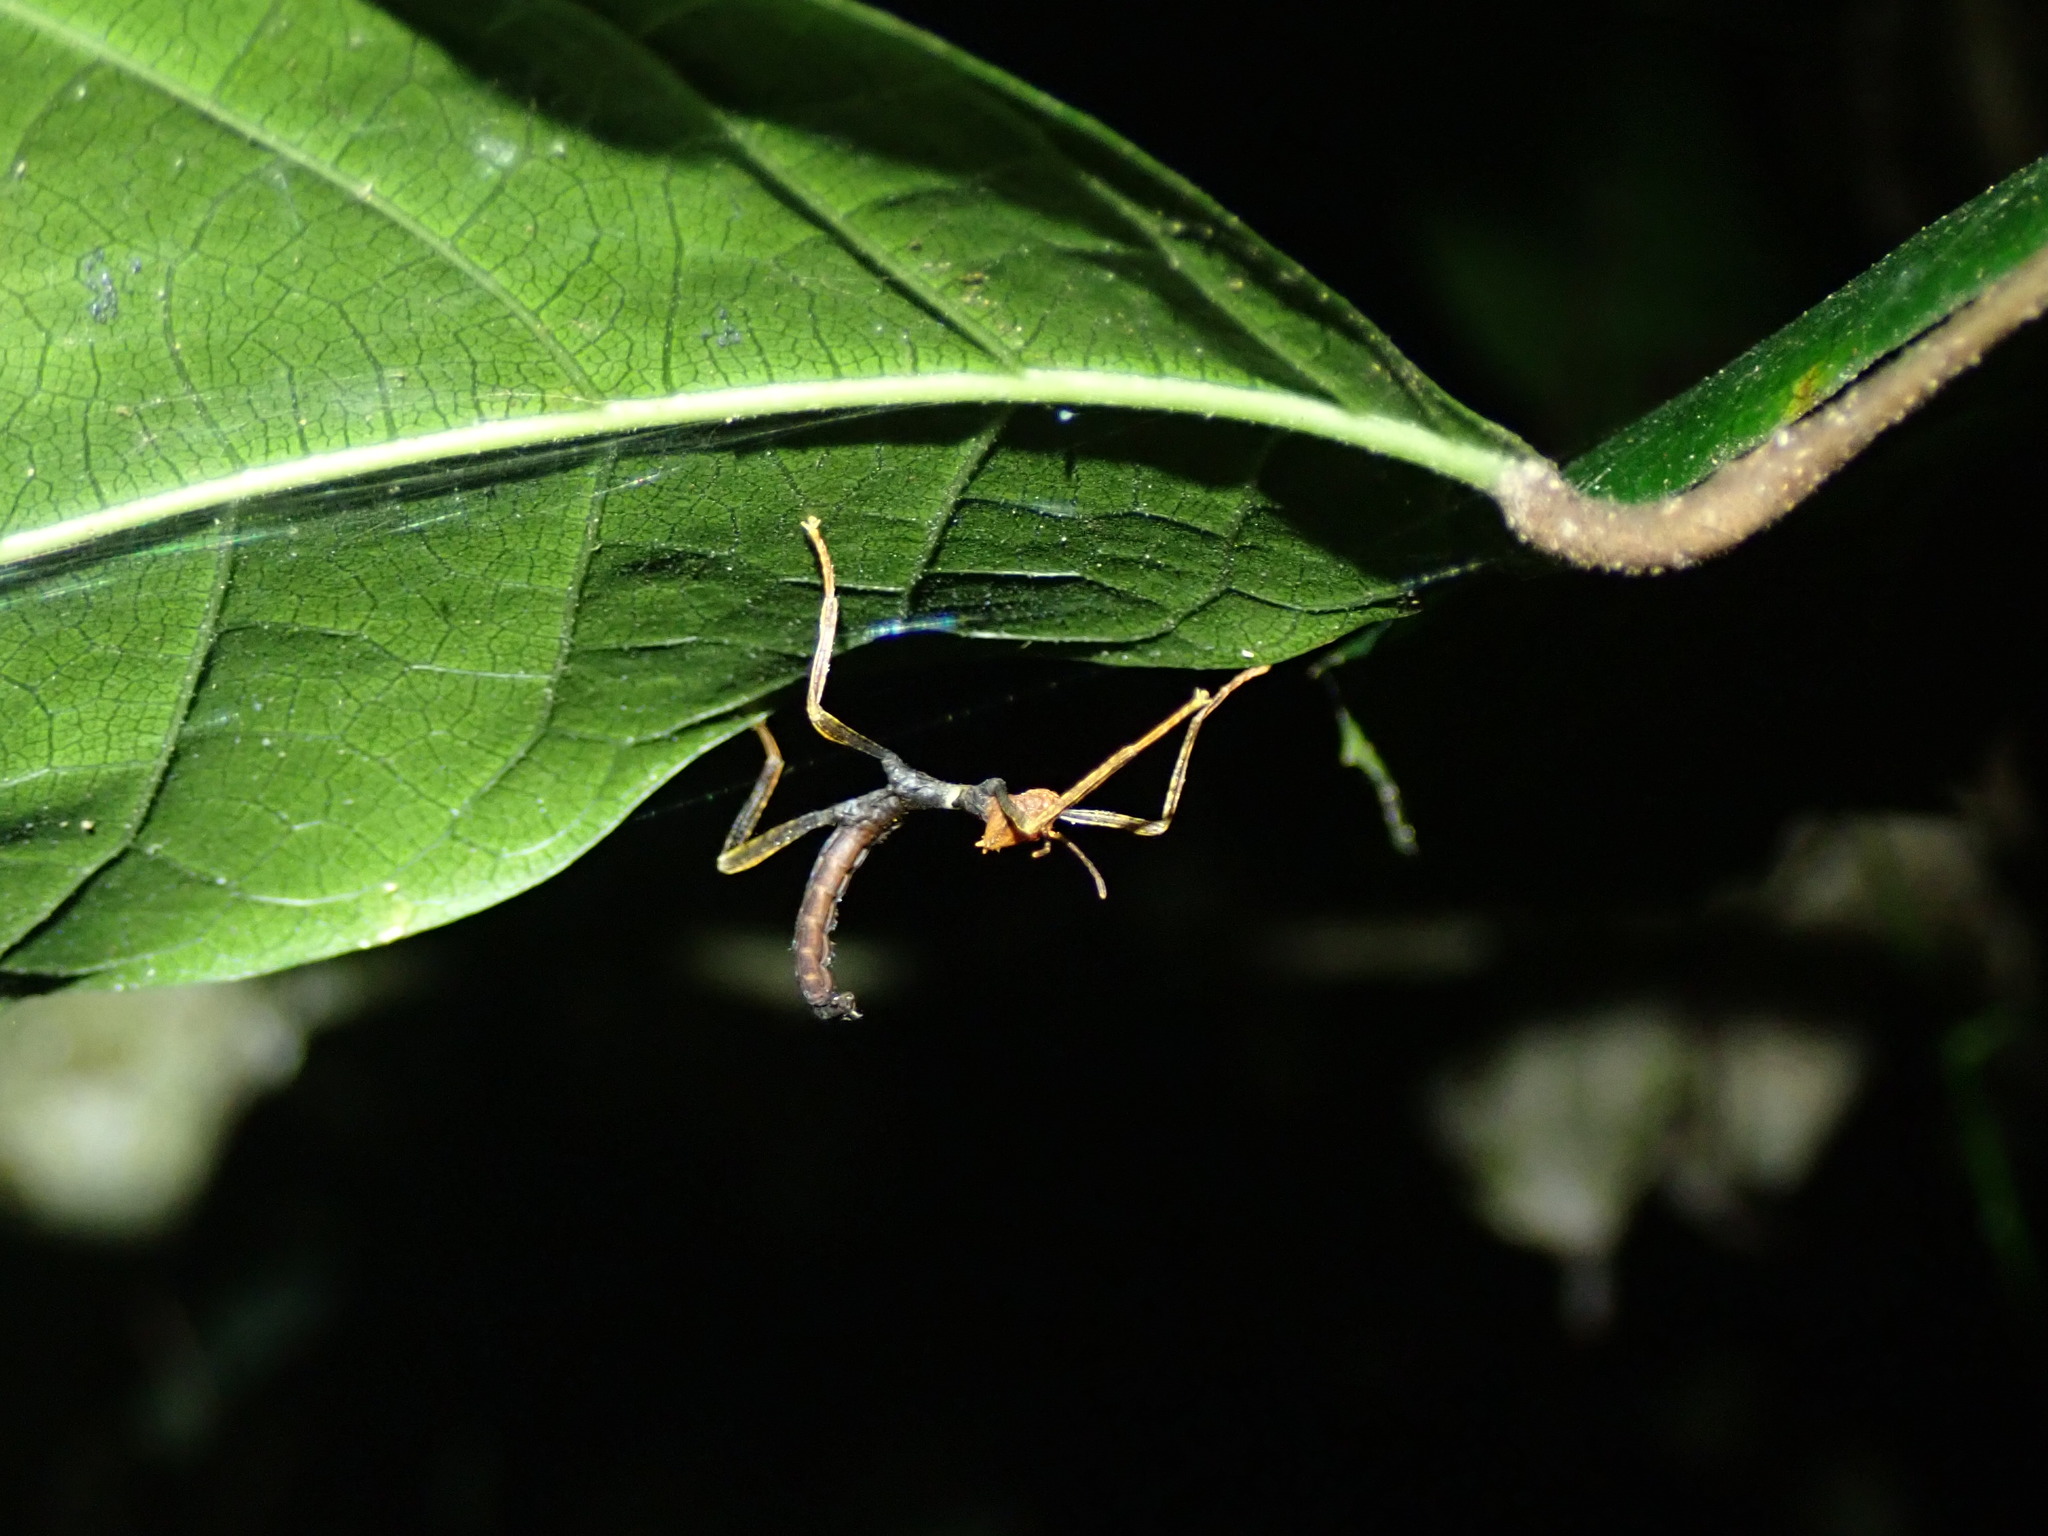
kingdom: Animalia
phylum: Arthropoda
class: Insecta
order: Phasmida
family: Phasmatidae
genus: Extatosoma
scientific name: Extatosoma tiaratum
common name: Macleay's spectre
